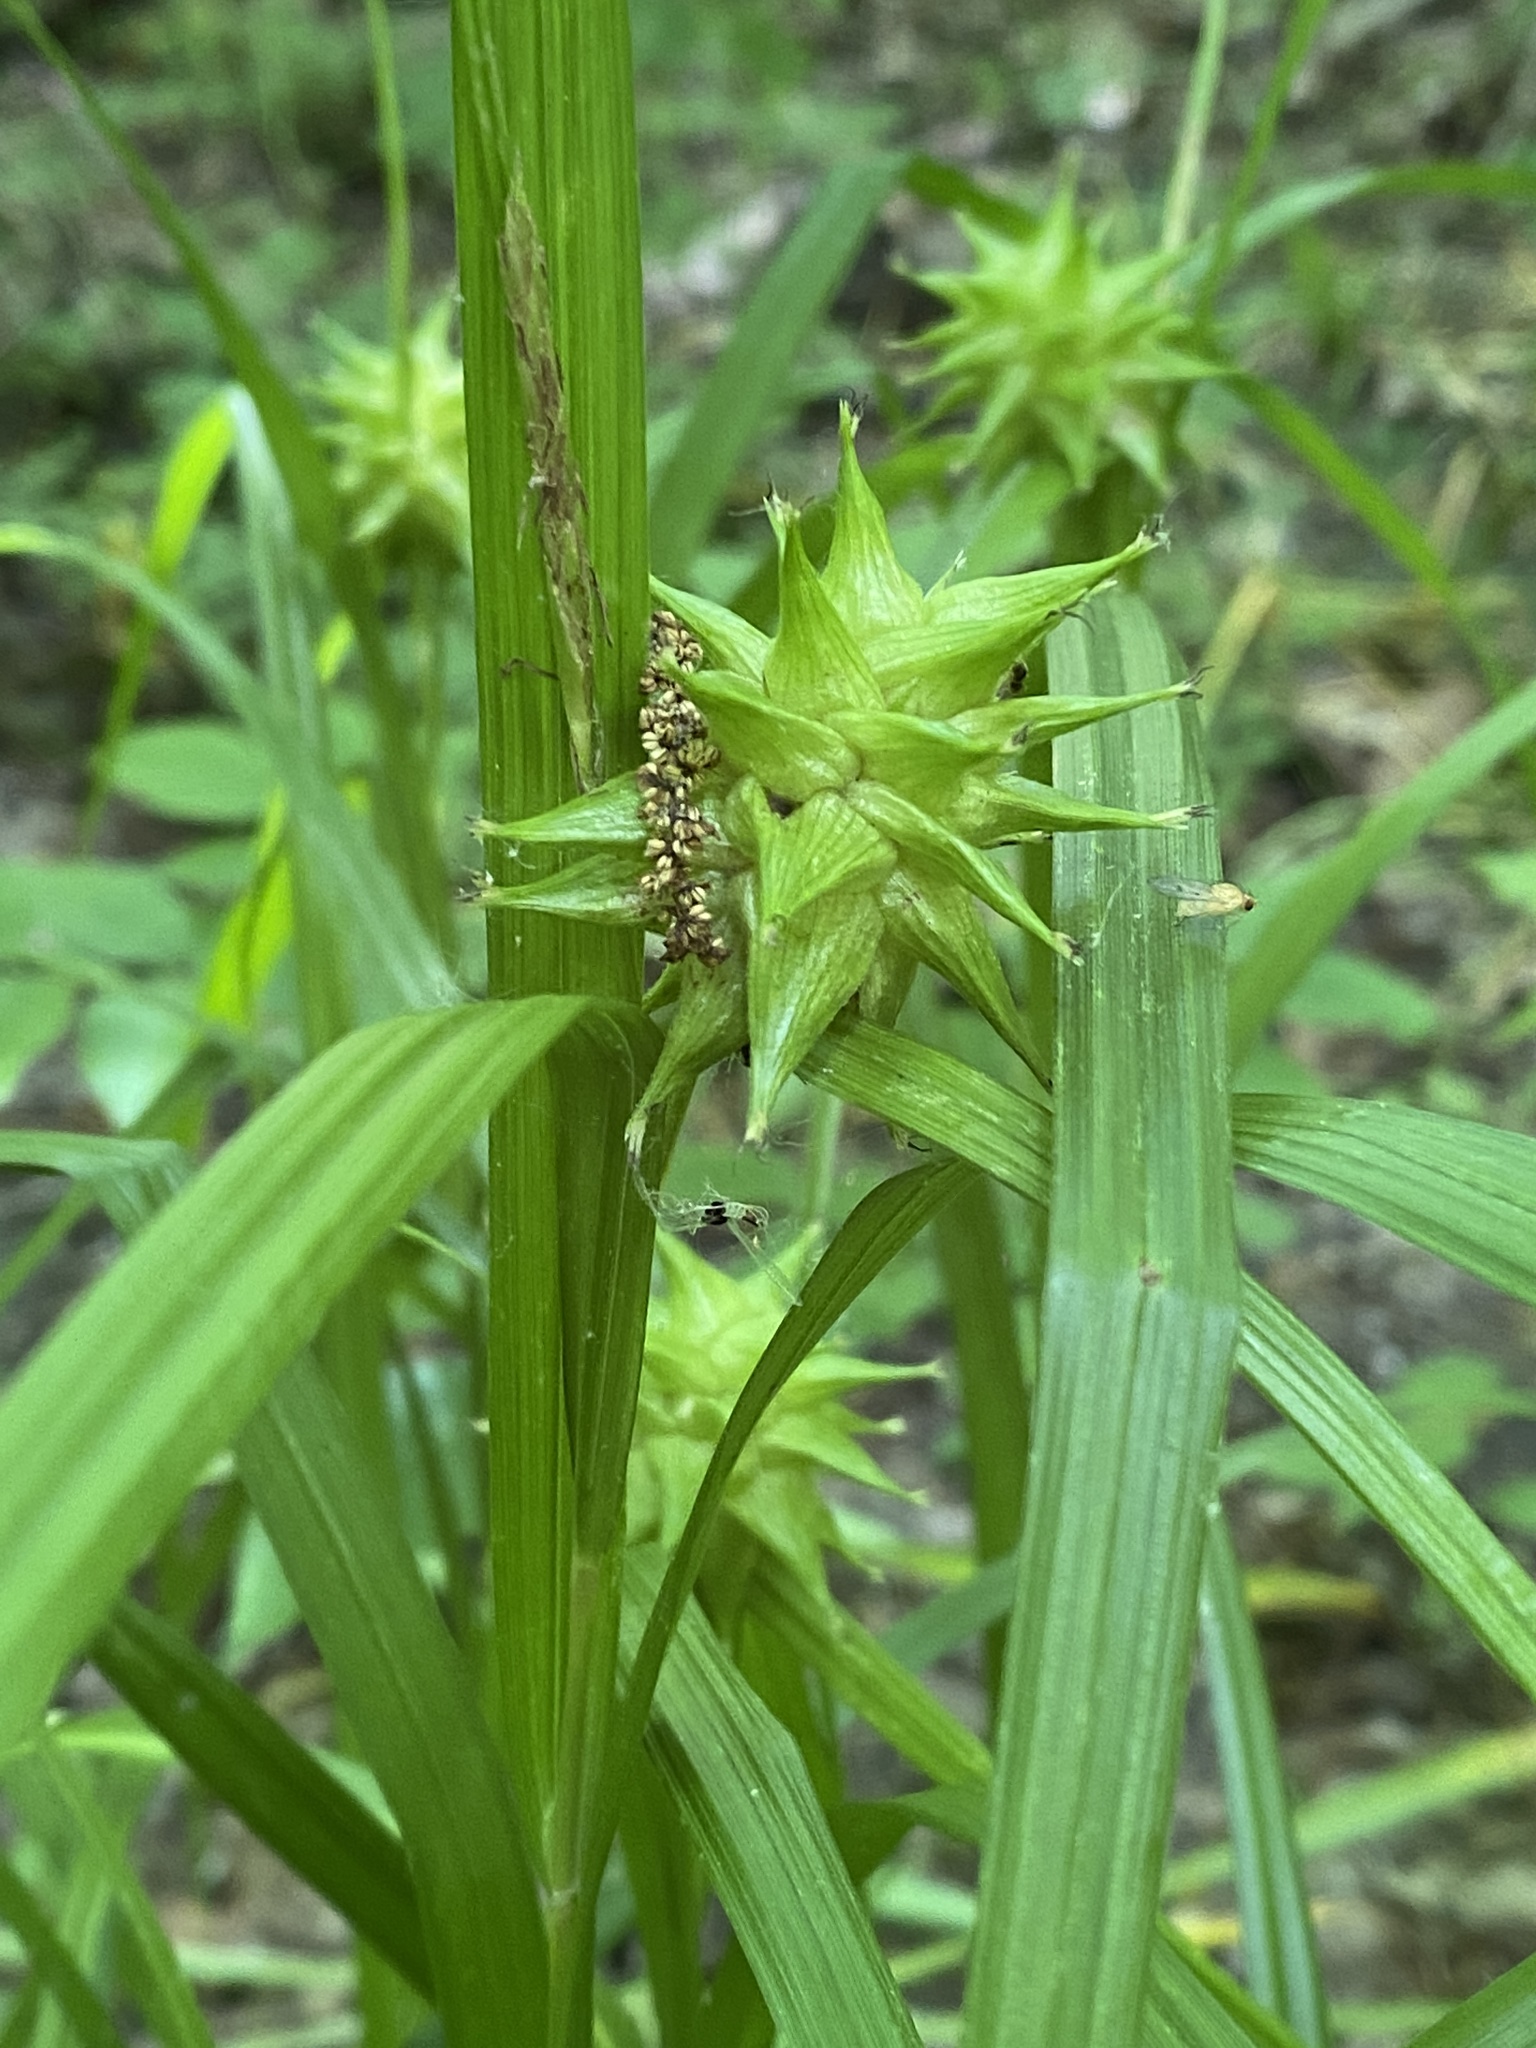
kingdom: Plantae
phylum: Tracheophyta
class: Liliopsida
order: Poales
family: Cyperaceae
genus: Carex
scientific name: Carex grayi
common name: Asa gray's sedge
